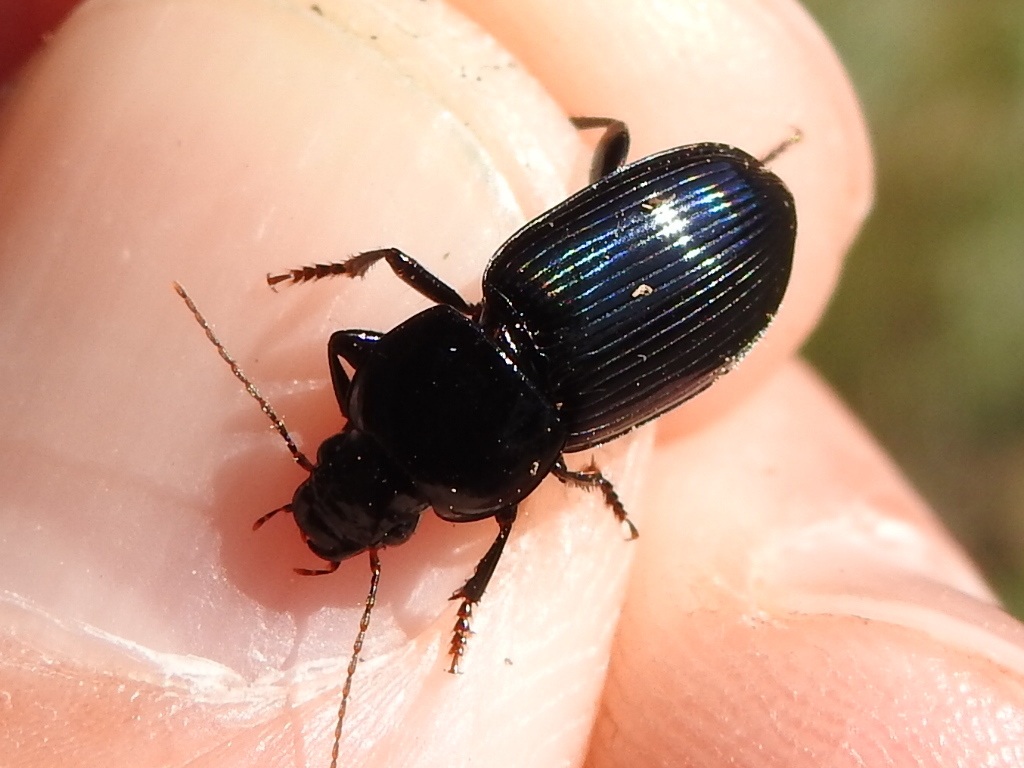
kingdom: Animalia
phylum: Arthropoda
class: Insecta
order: Coleoptera
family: Carabidae
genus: Aztecarpalus
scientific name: Aztecarpalus schaefferi
